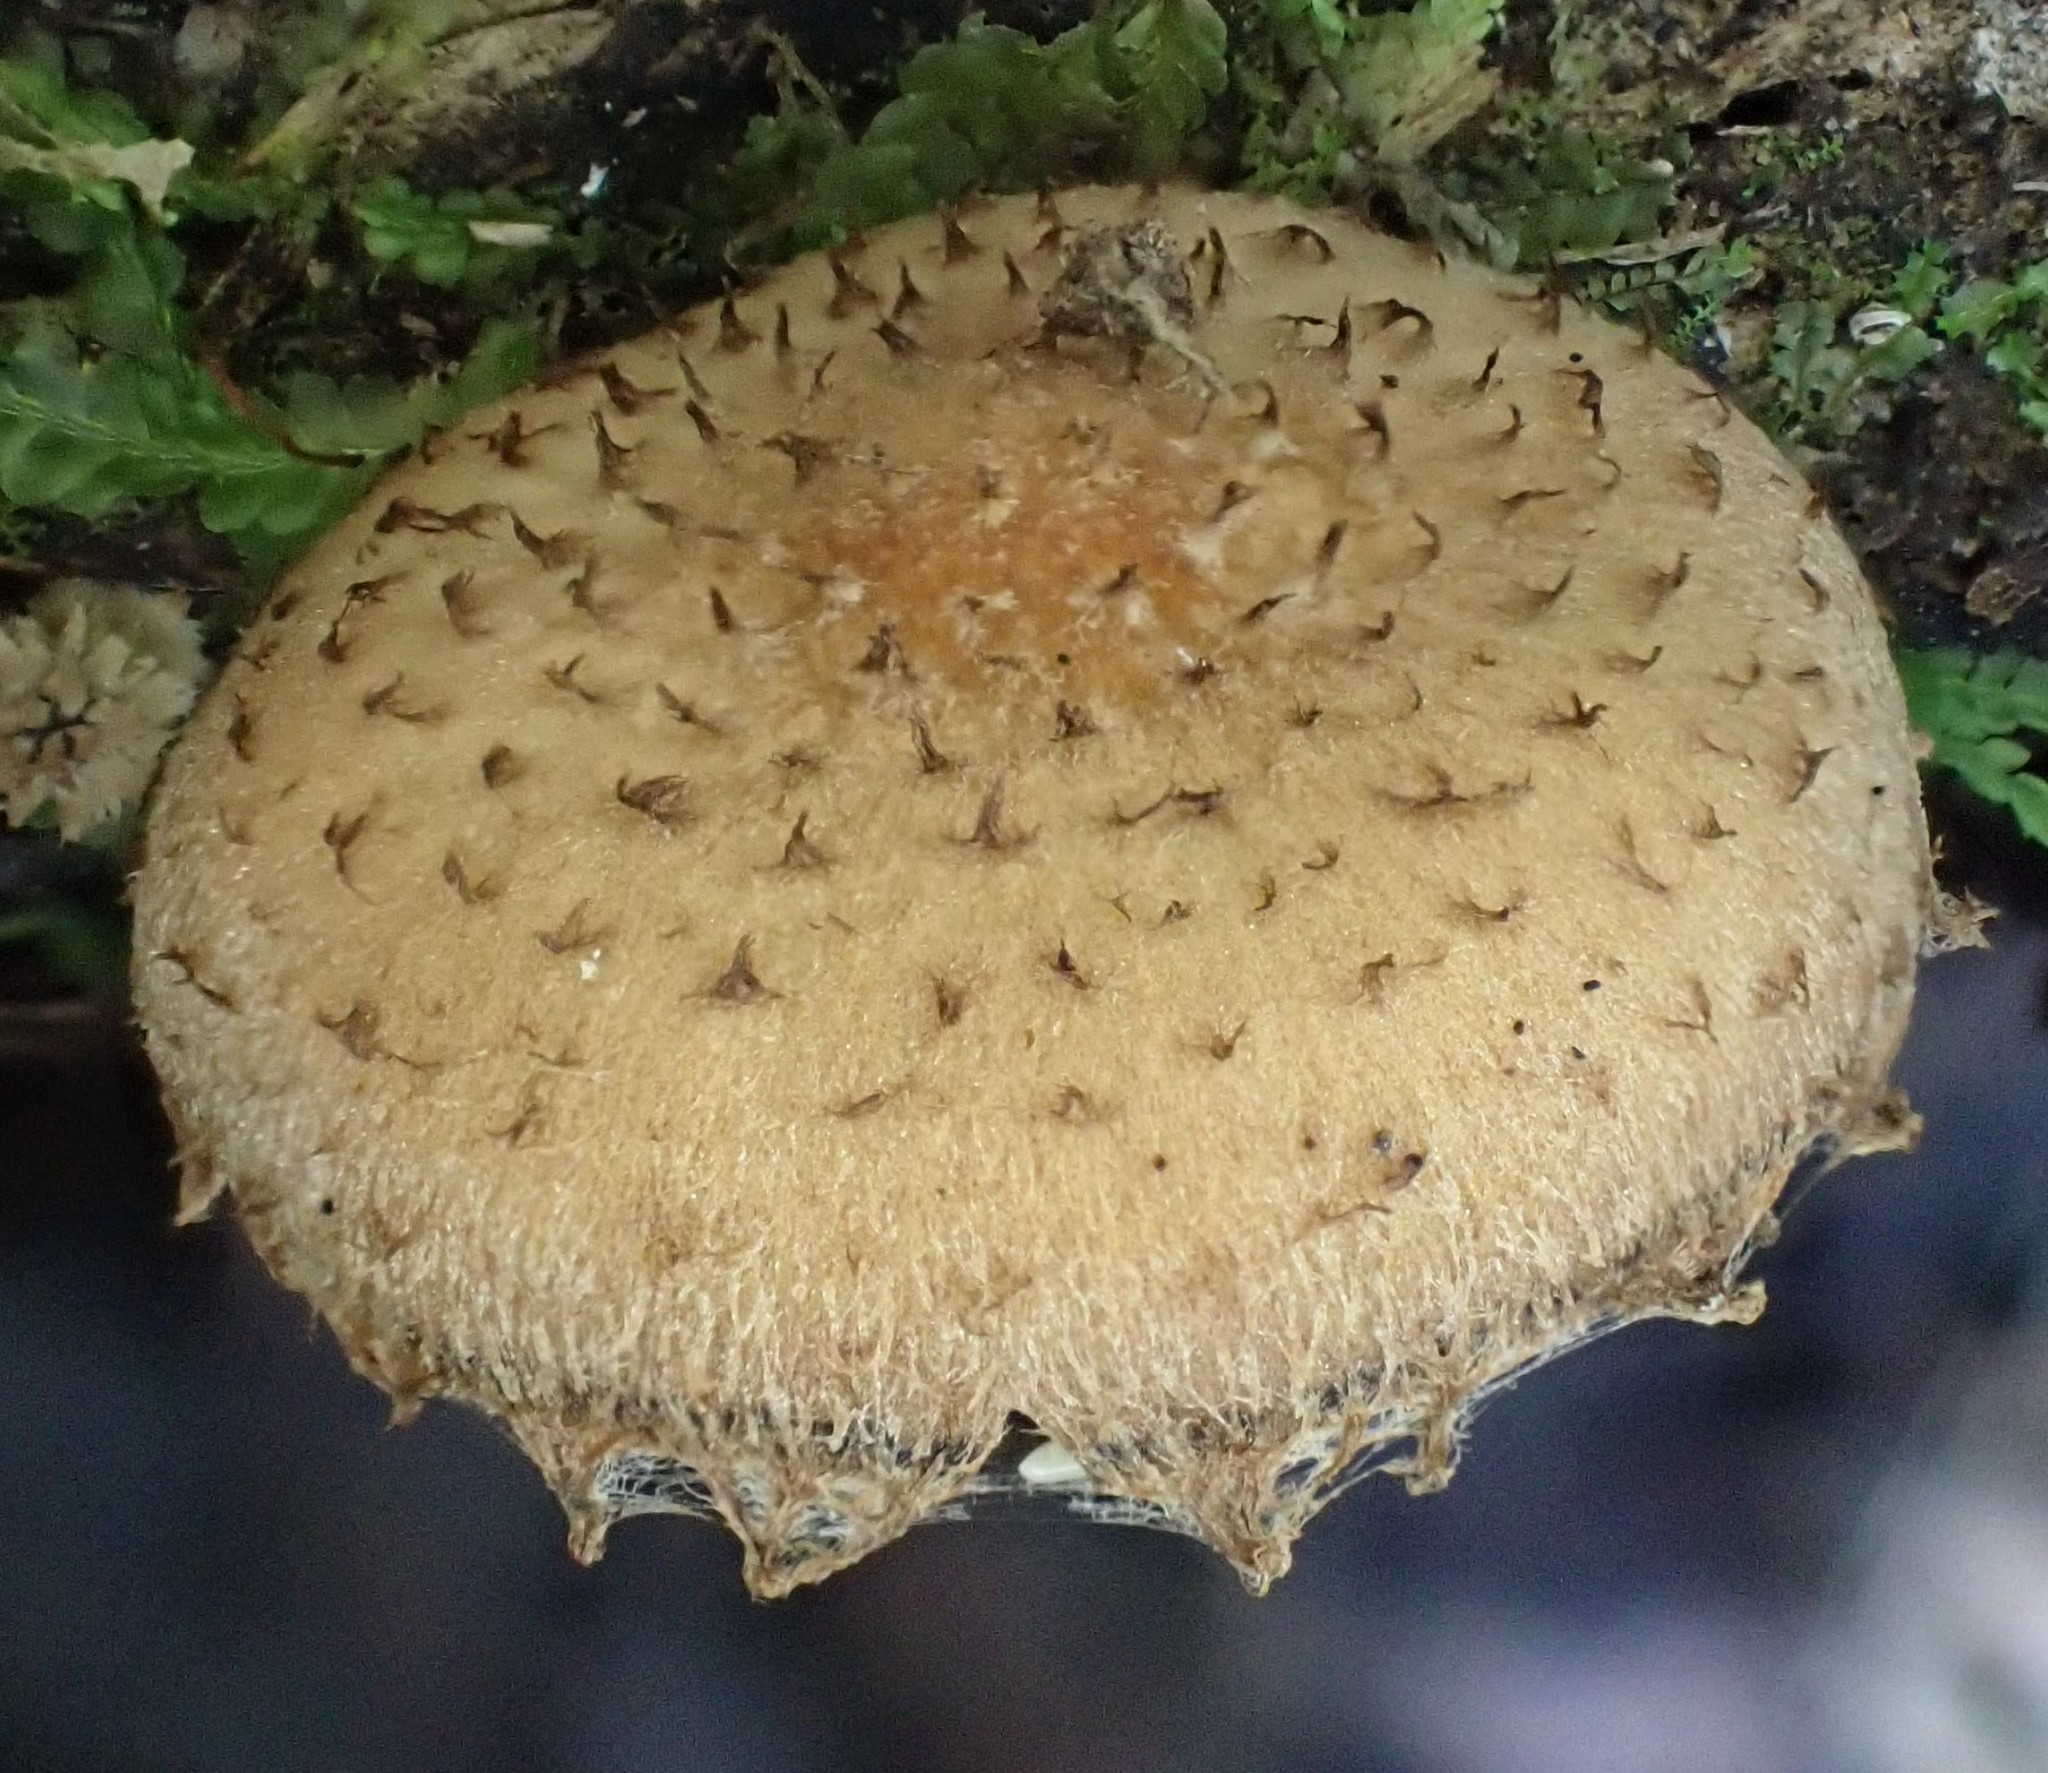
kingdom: Fungi
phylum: Basidiomycota
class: Agaricomycetes
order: Agaricales
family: Psathyrellaceae
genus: Psathyrella
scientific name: Psathyrella echinata
